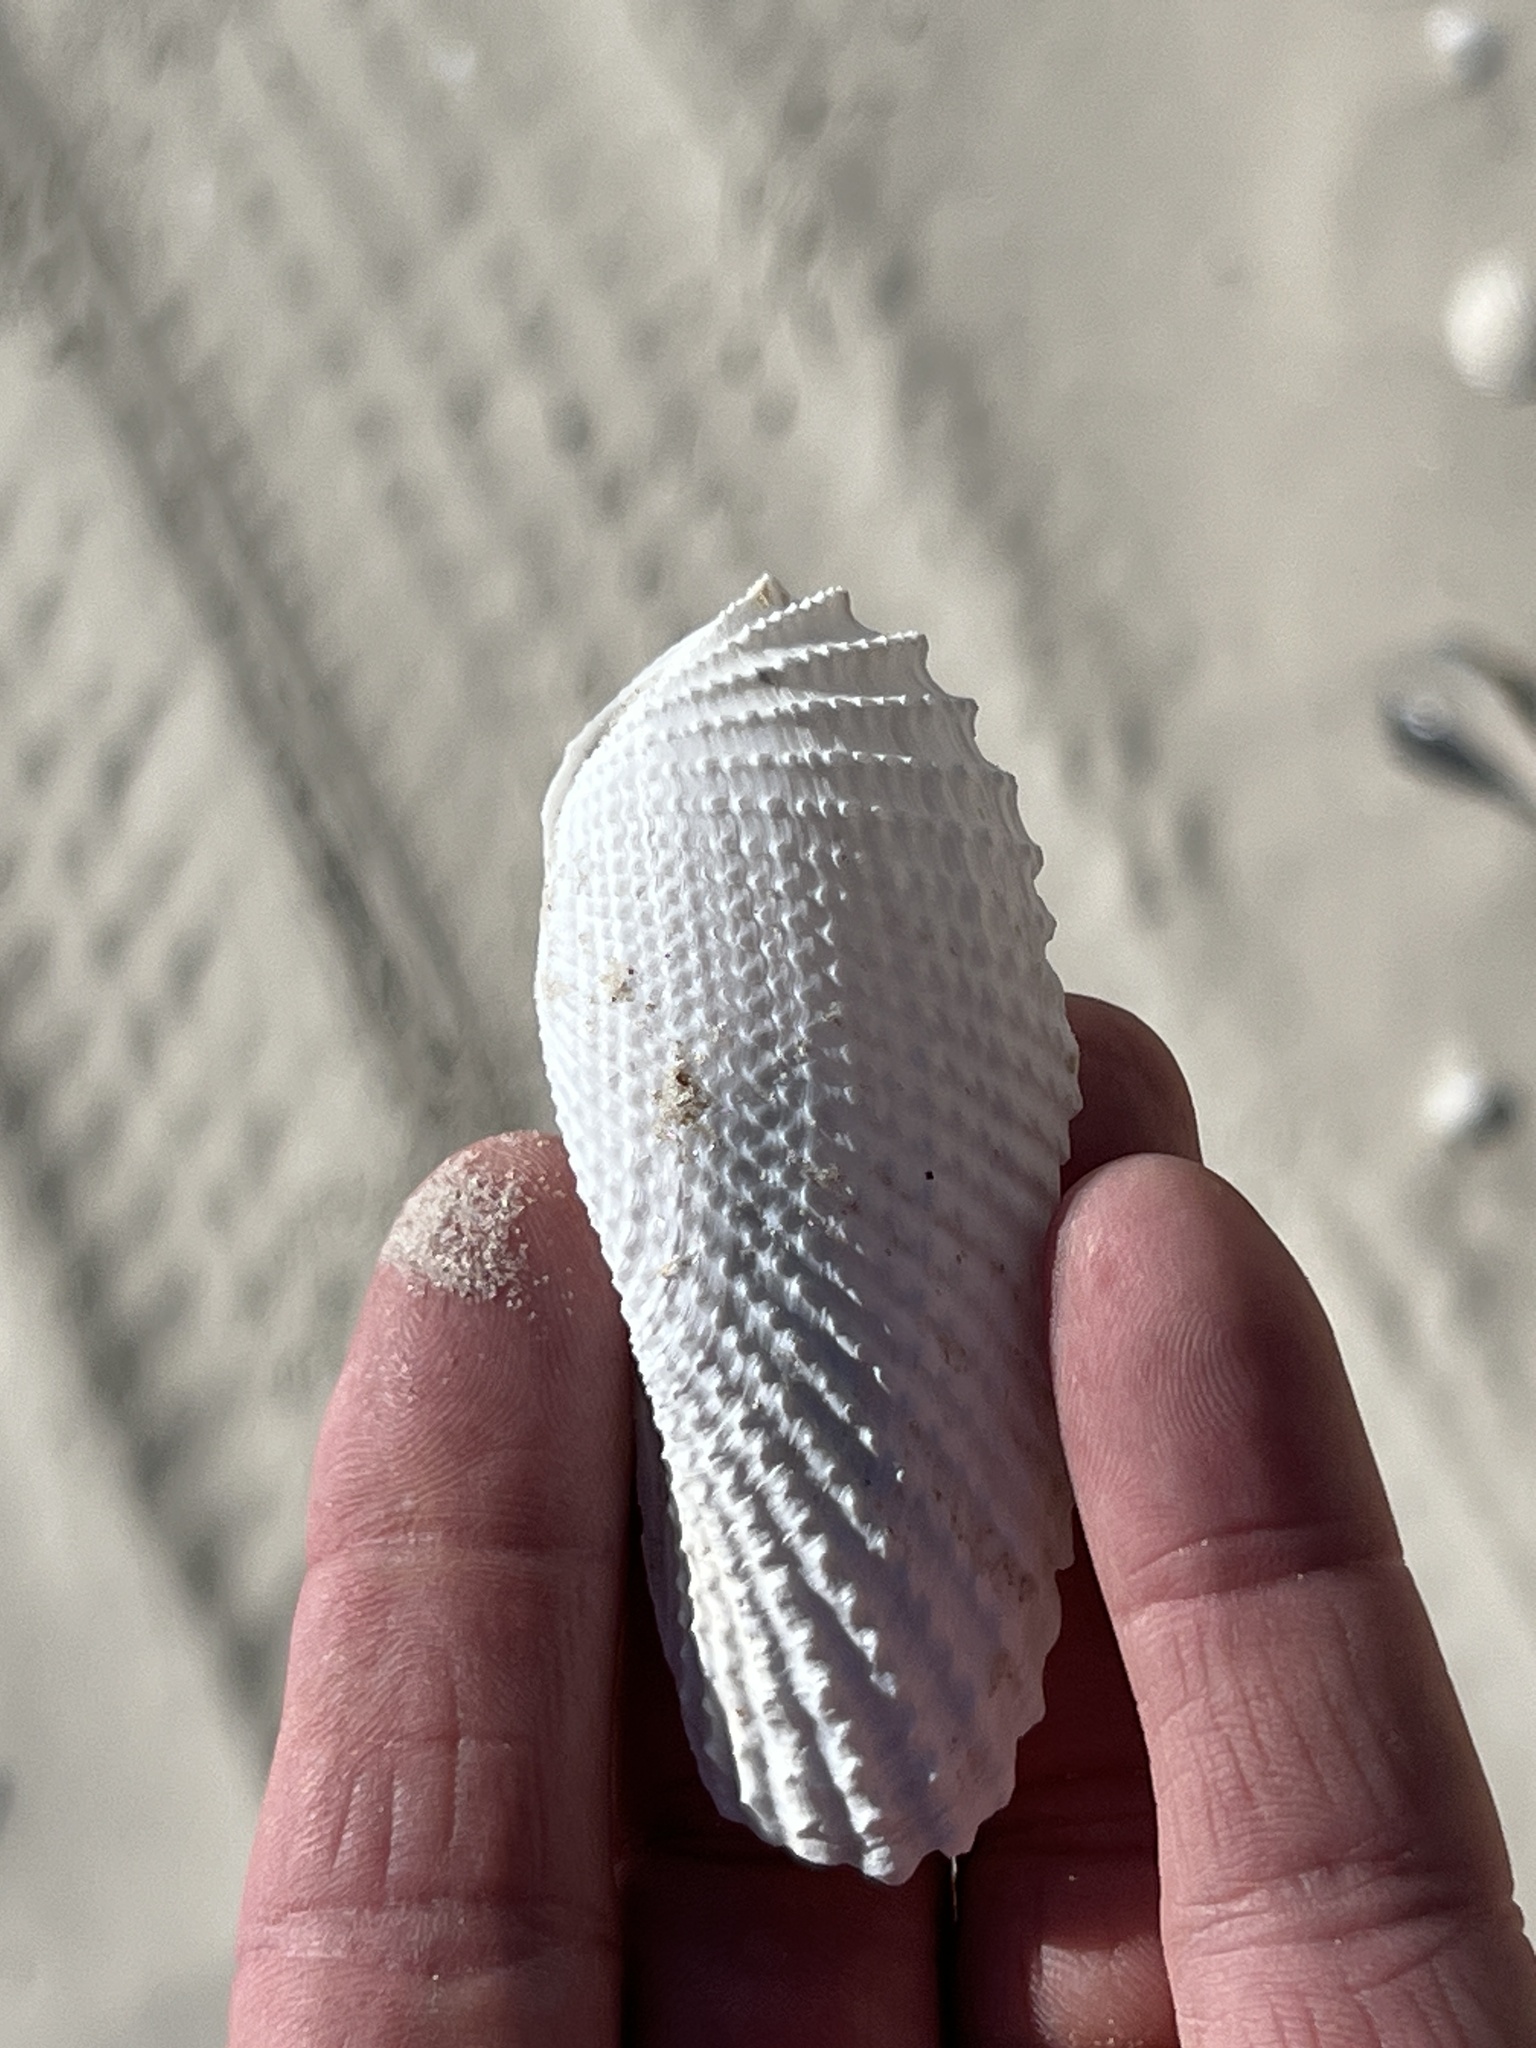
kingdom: Animalia
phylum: Mollusca
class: Bivalvia
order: Myida
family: Pholadidae
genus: Cyrtopleura
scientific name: Cyrtopleura costata
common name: Angel wing
